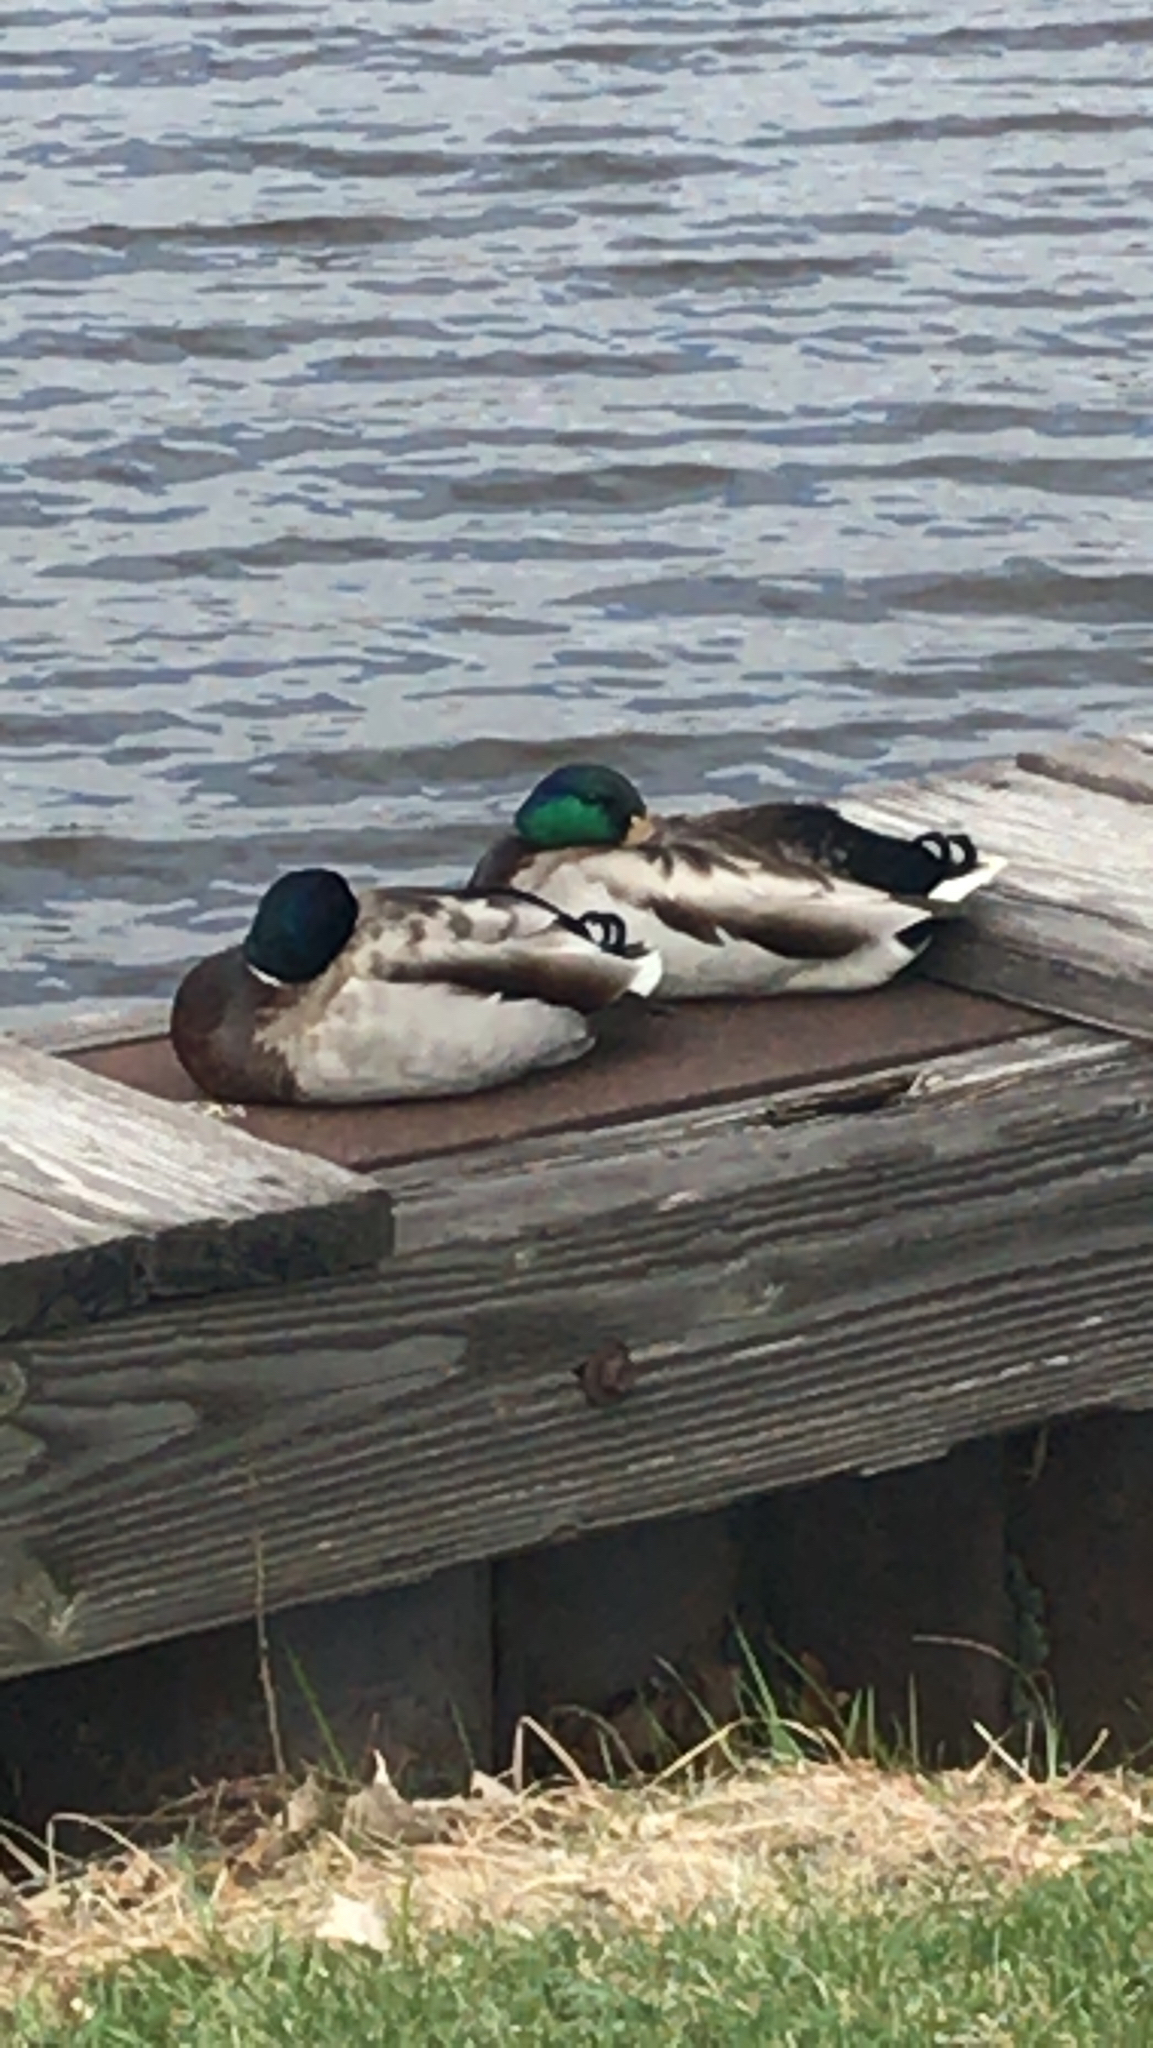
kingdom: Animalia
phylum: Chordata
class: Aves
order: Anseriformes
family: Anatidae
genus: Anas
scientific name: Anas platyrhynchos
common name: Mallard
